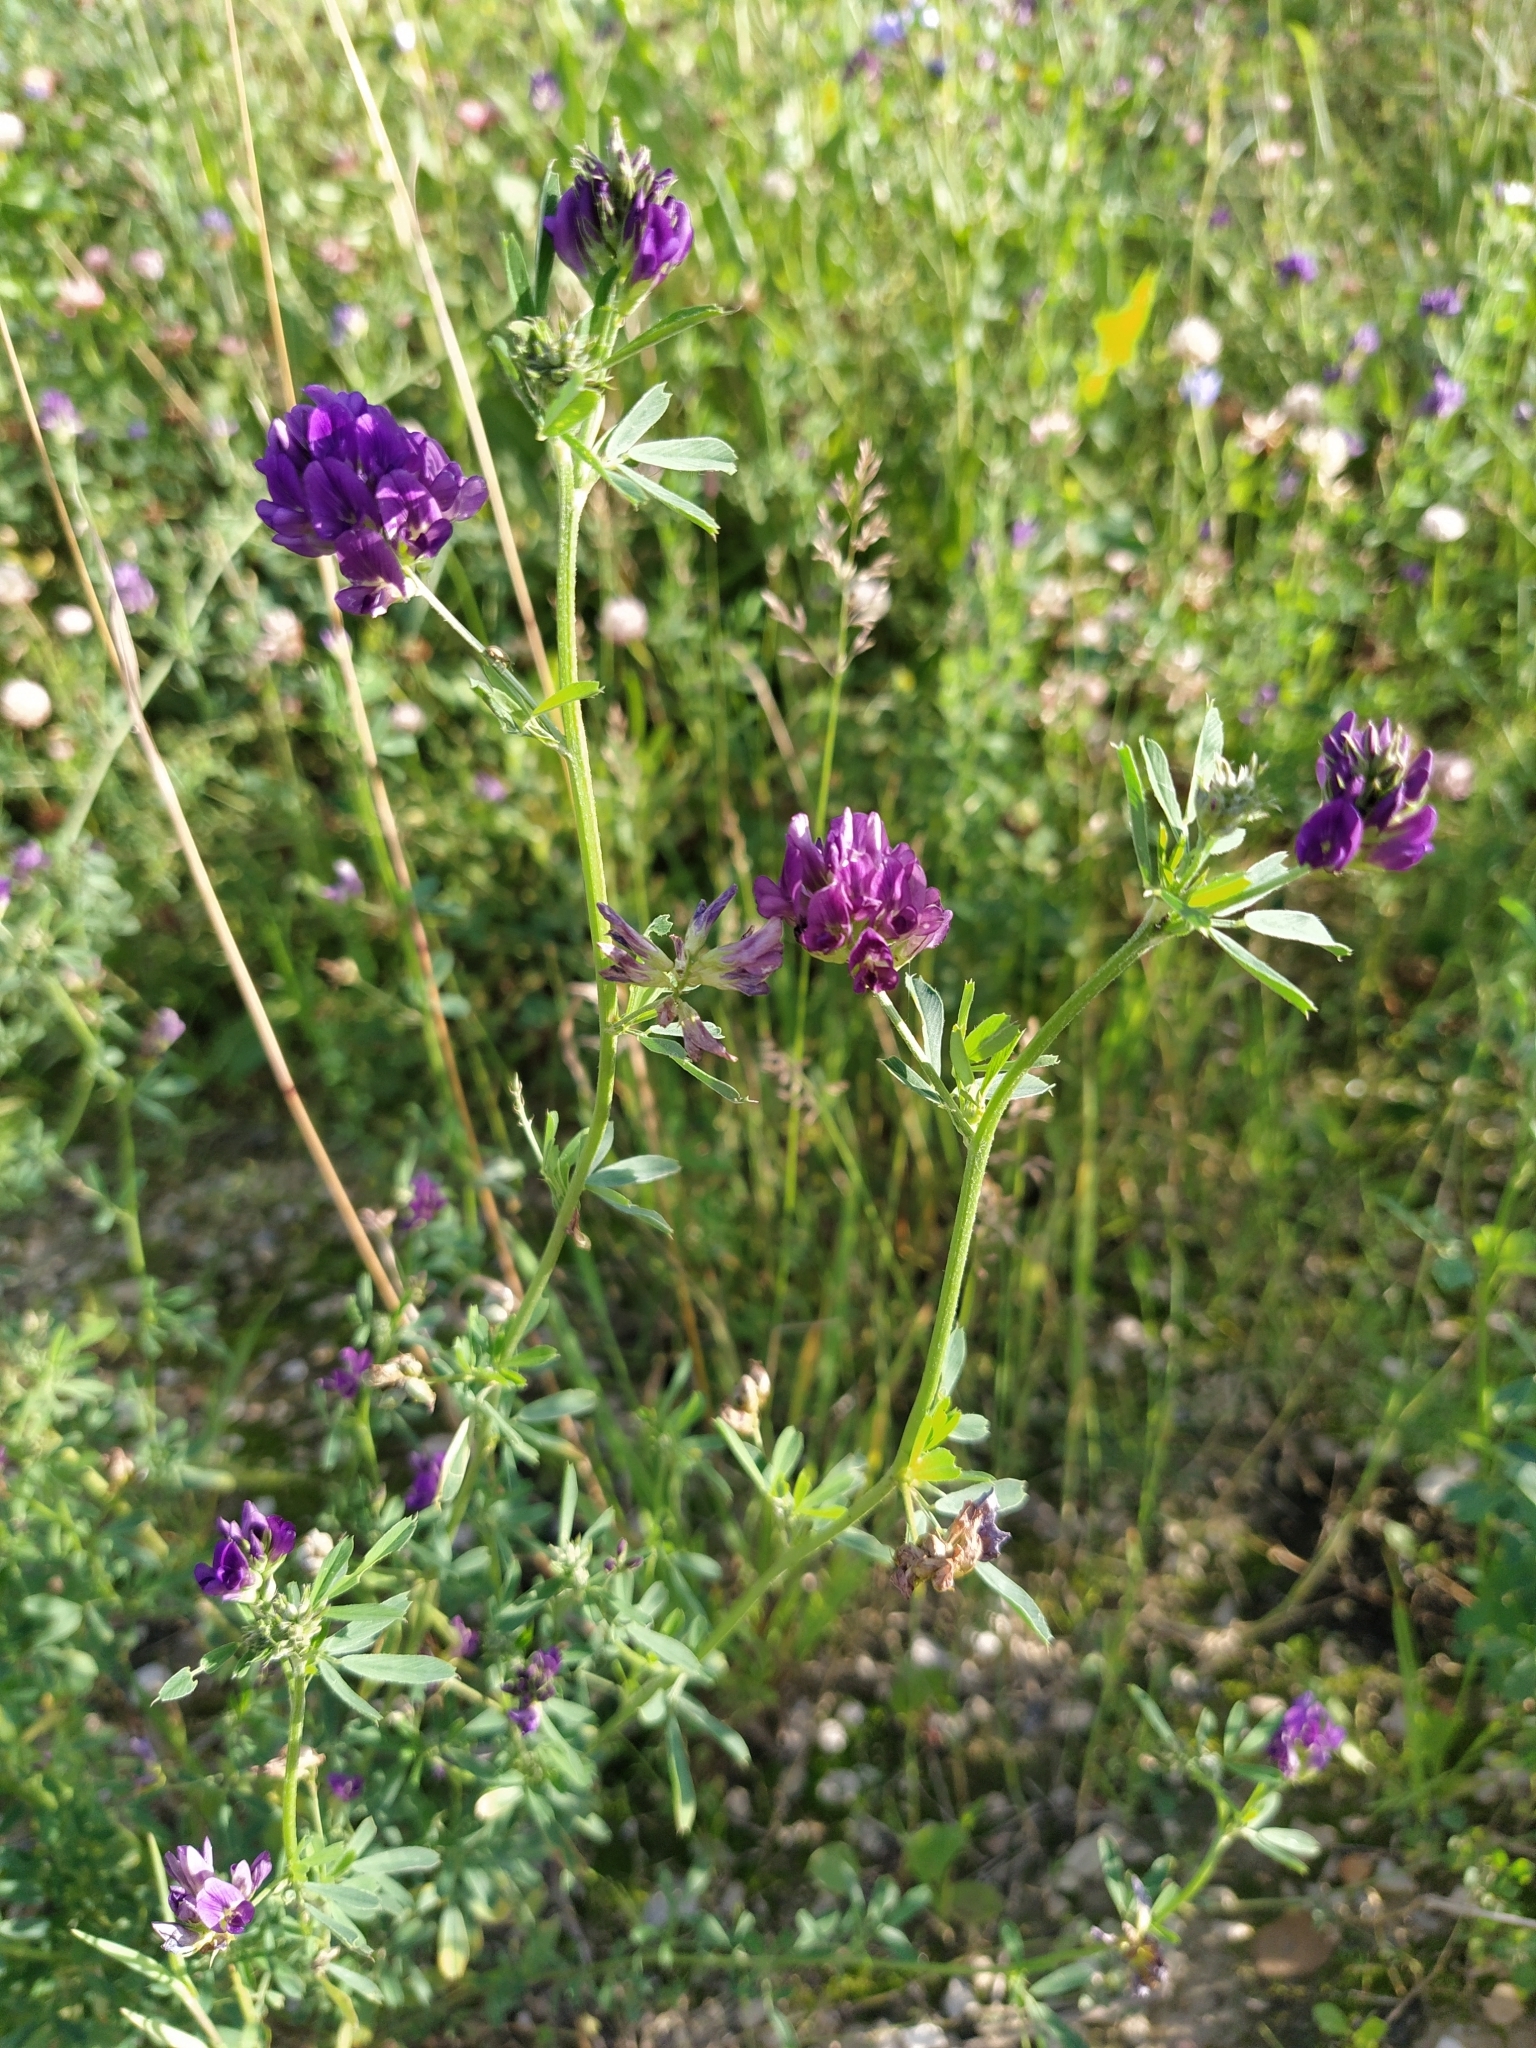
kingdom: Plantae
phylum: Tracheophyta
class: Magnoliopsida
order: Fabales
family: Fabaceae
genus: Medicago
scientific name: Medicago sativa
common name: Alfalfa
